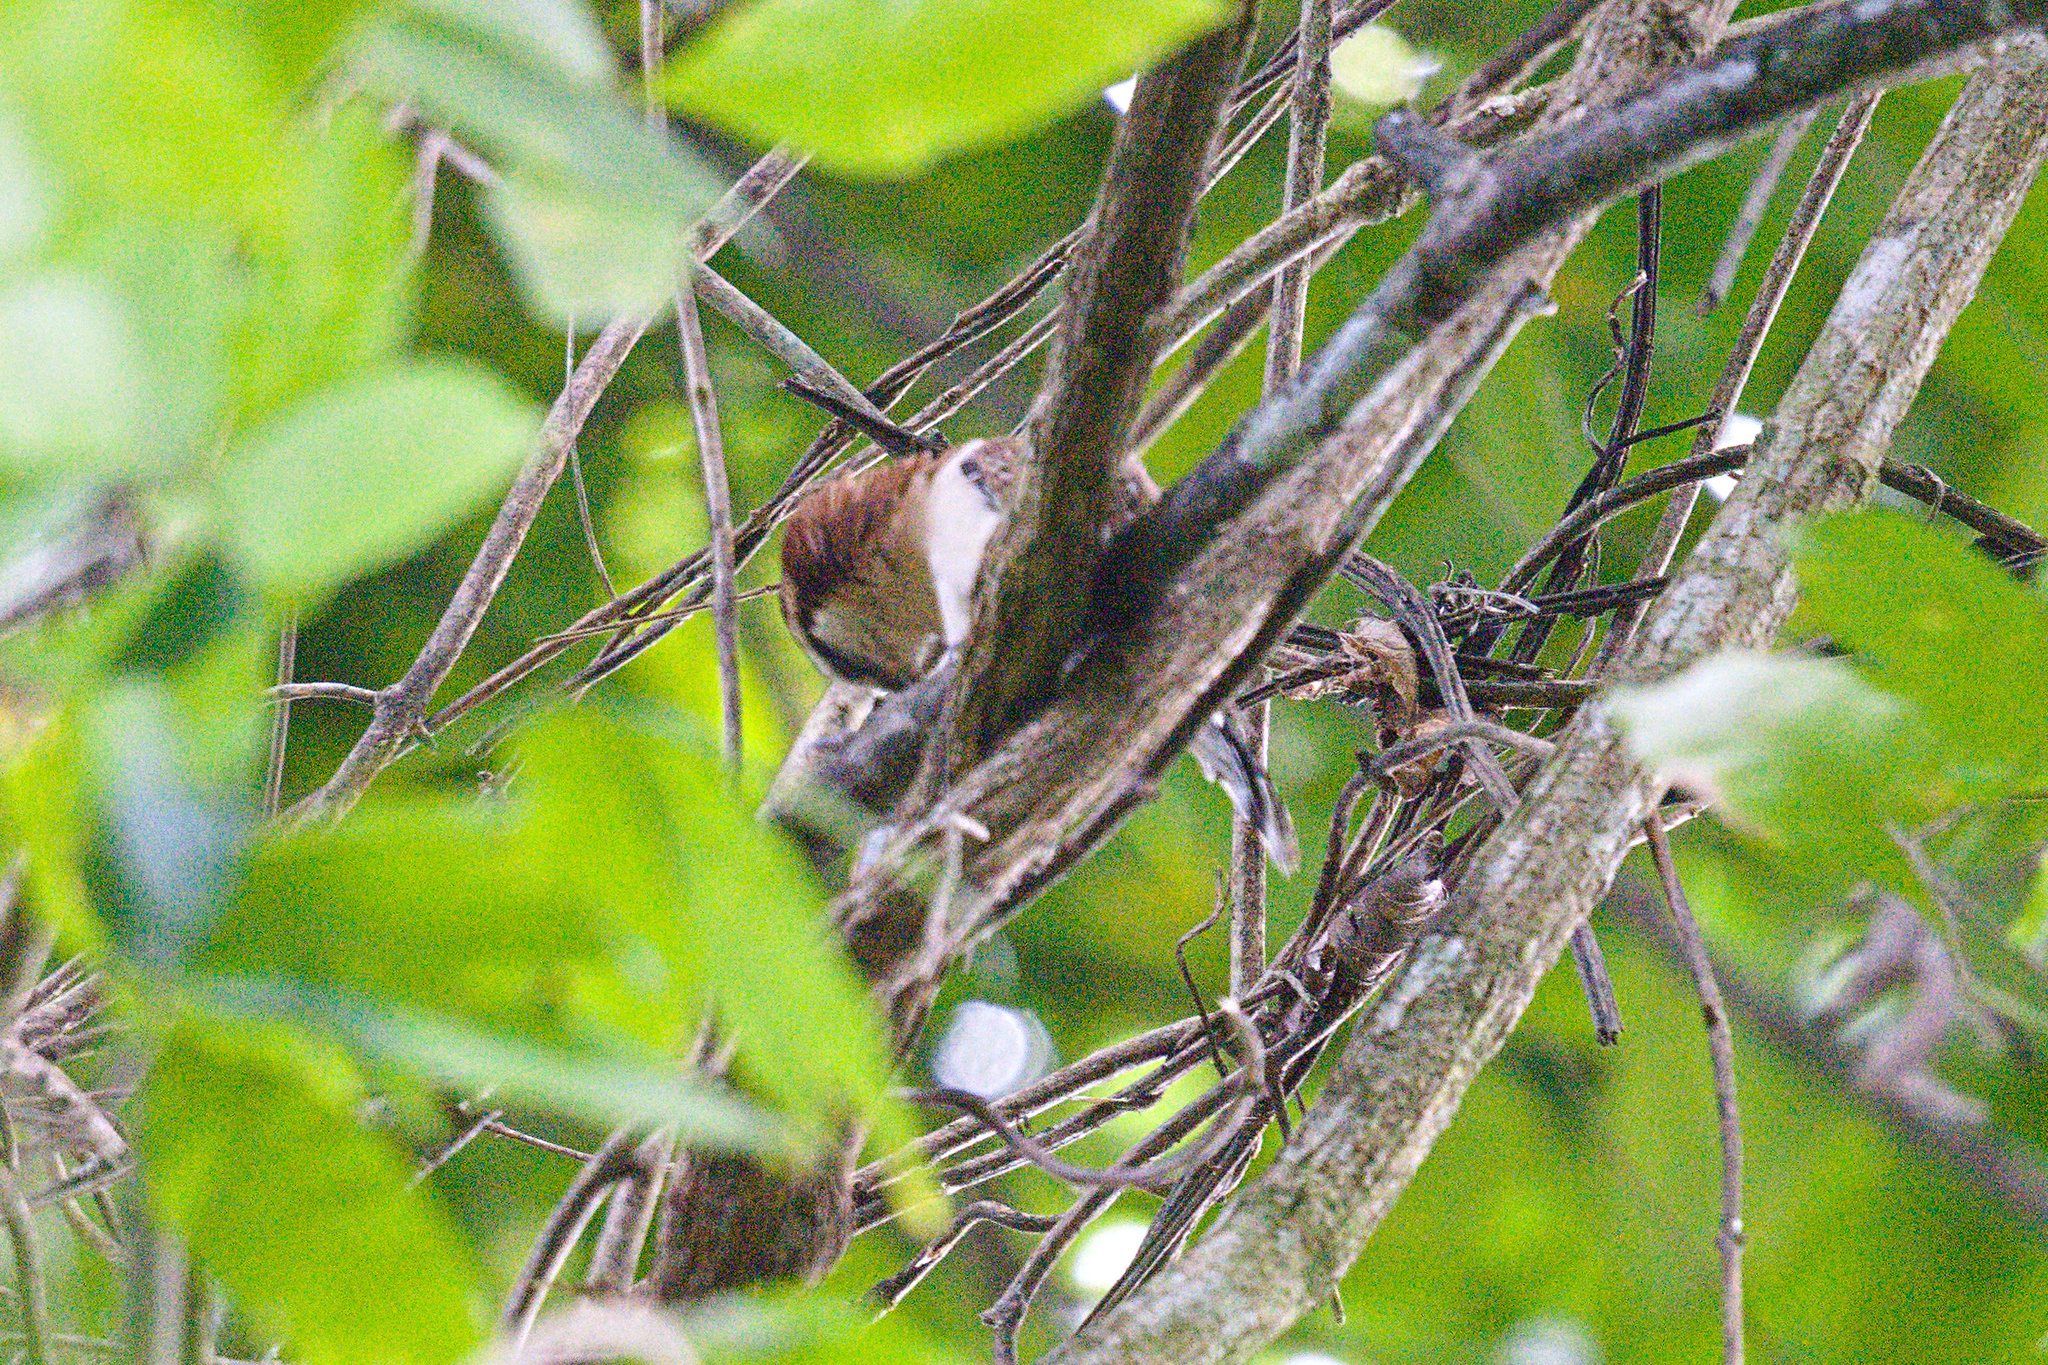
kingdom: Animalia
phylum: Chordata
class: Aves
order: Passeriformes
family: Troglodytidae
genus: Campylorhynchus
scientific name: Campylorhynchus rufinucha
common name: Rufous-naped wren
